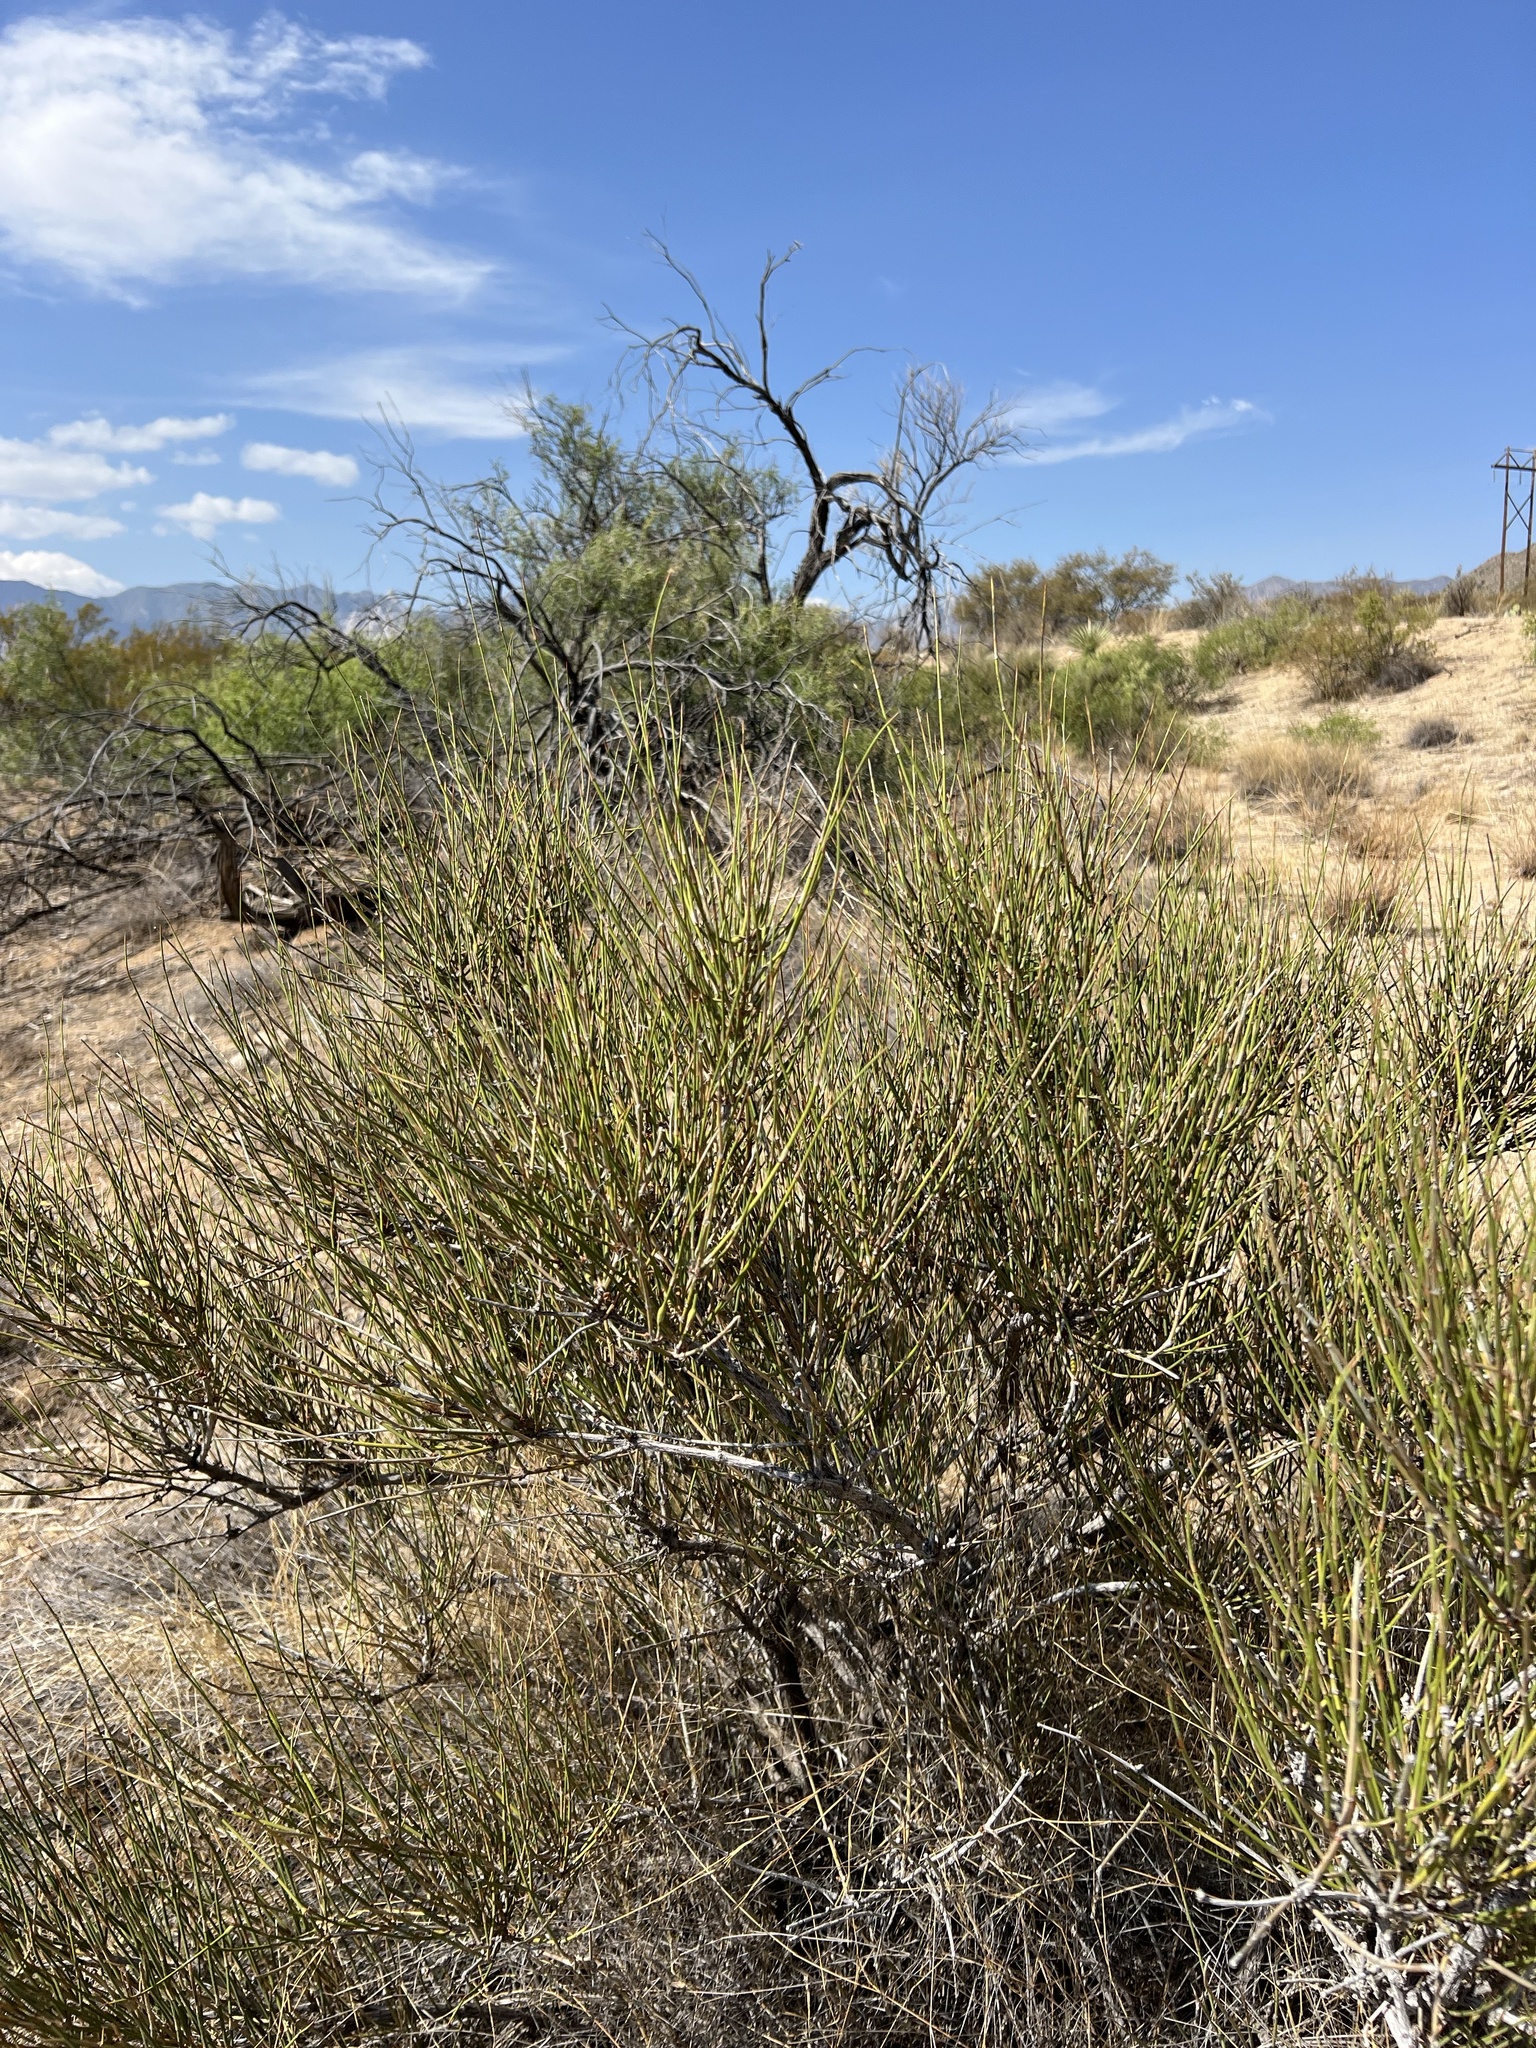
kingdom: Plantae
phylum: Tracheophyta
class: Gnetopsida
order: Ephedrales
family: Ephedraceae
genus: Ephedra
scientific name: Ephedra trifurca
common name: Mexican-tea
